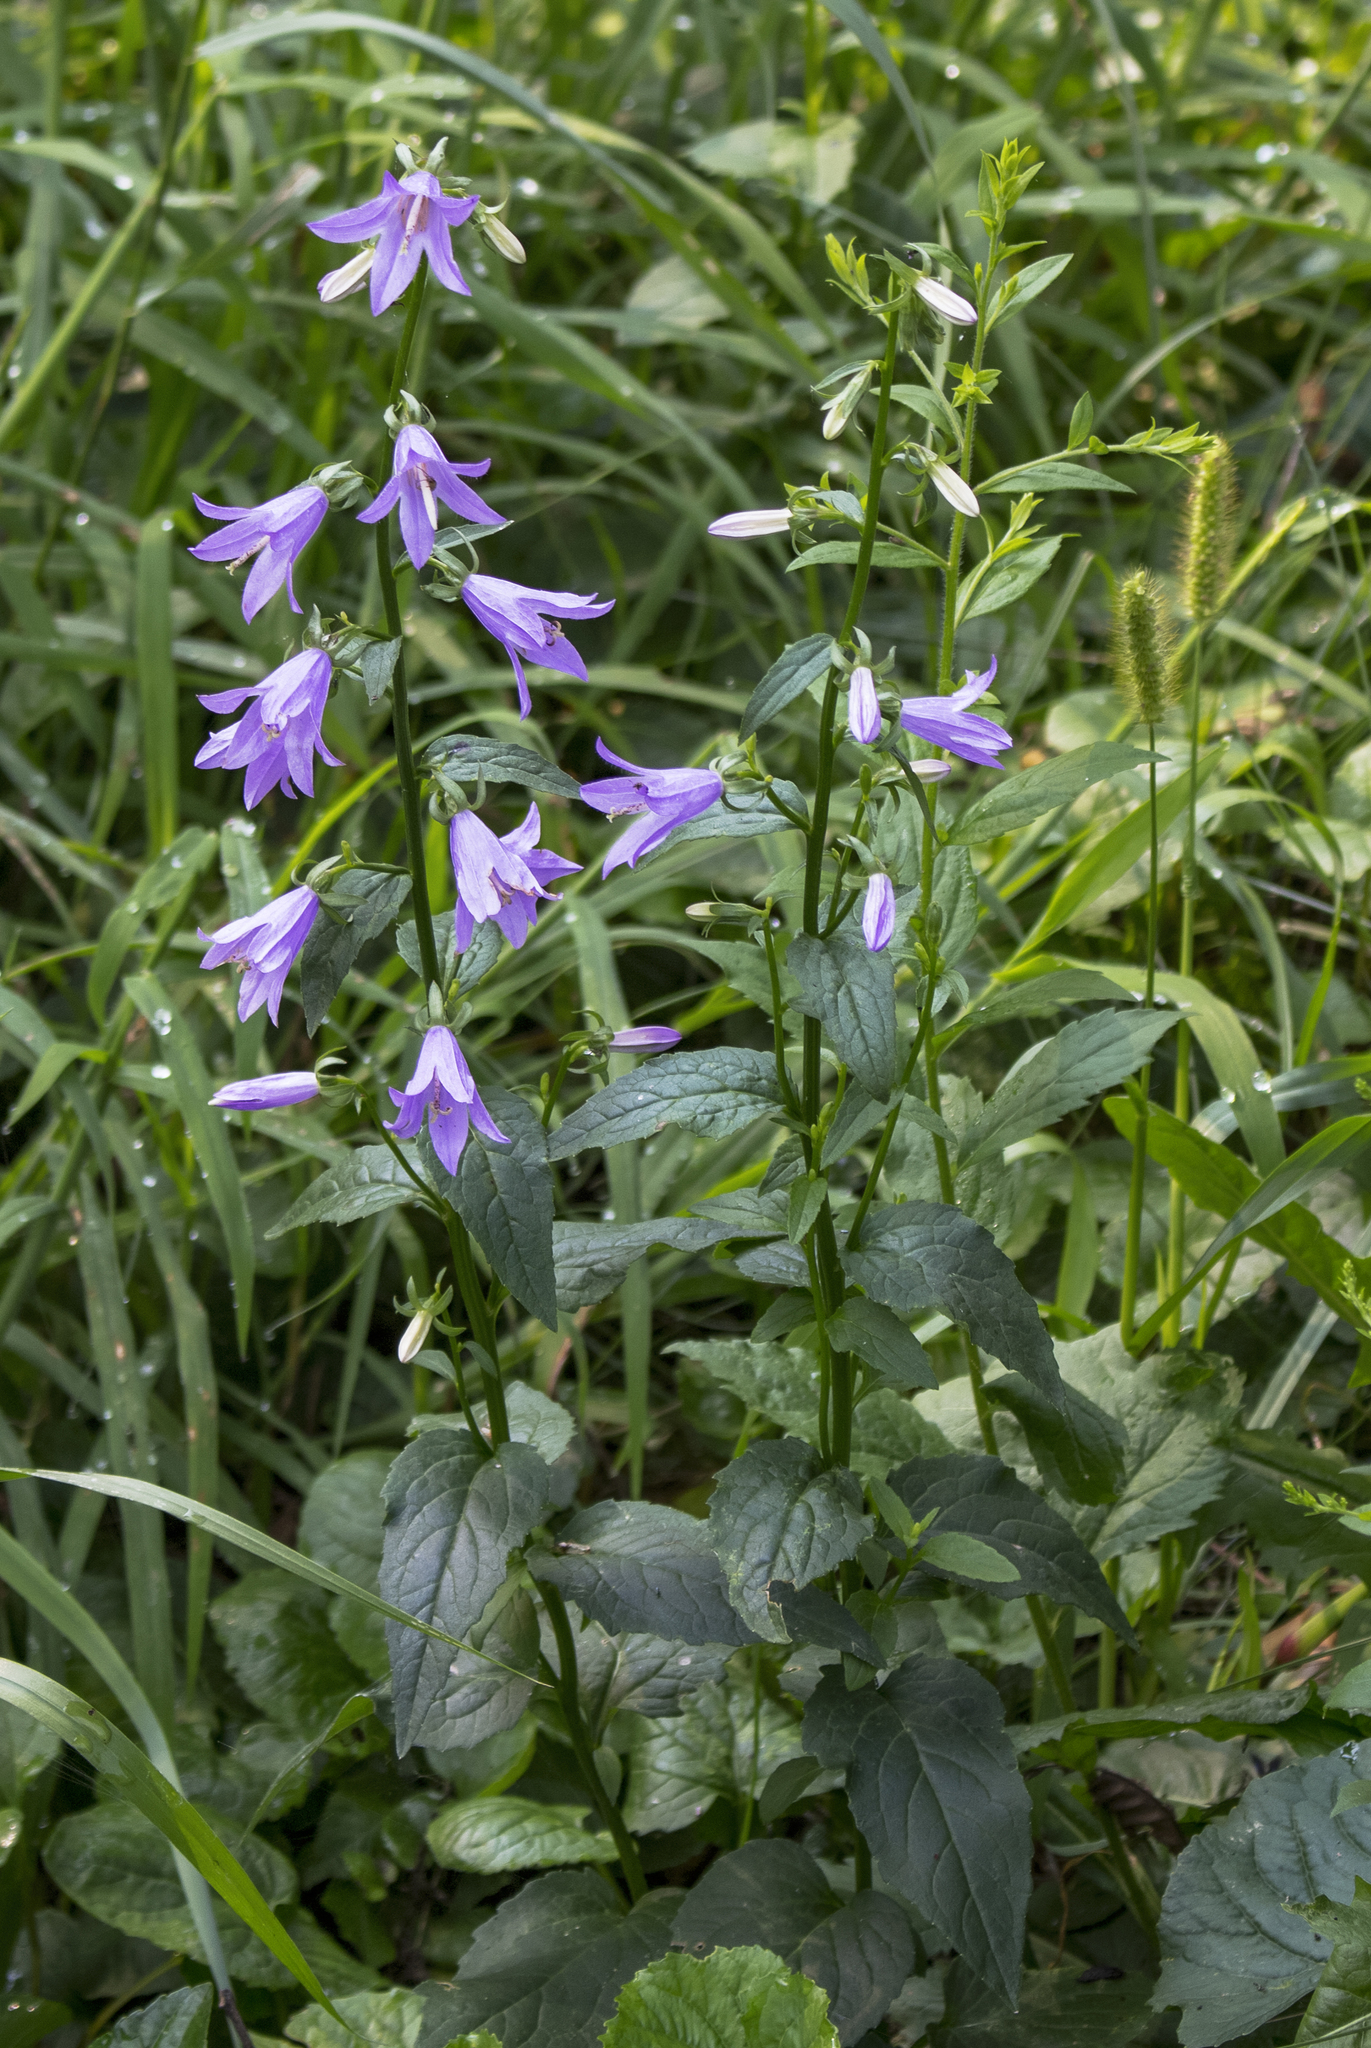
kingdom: Plantae
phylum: Tracheophyta
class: Magnoliopsida
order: Asterales
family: Campanulaceae
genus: Campanula
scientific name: Campanula rapunculoides
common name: Creeping bellflower
